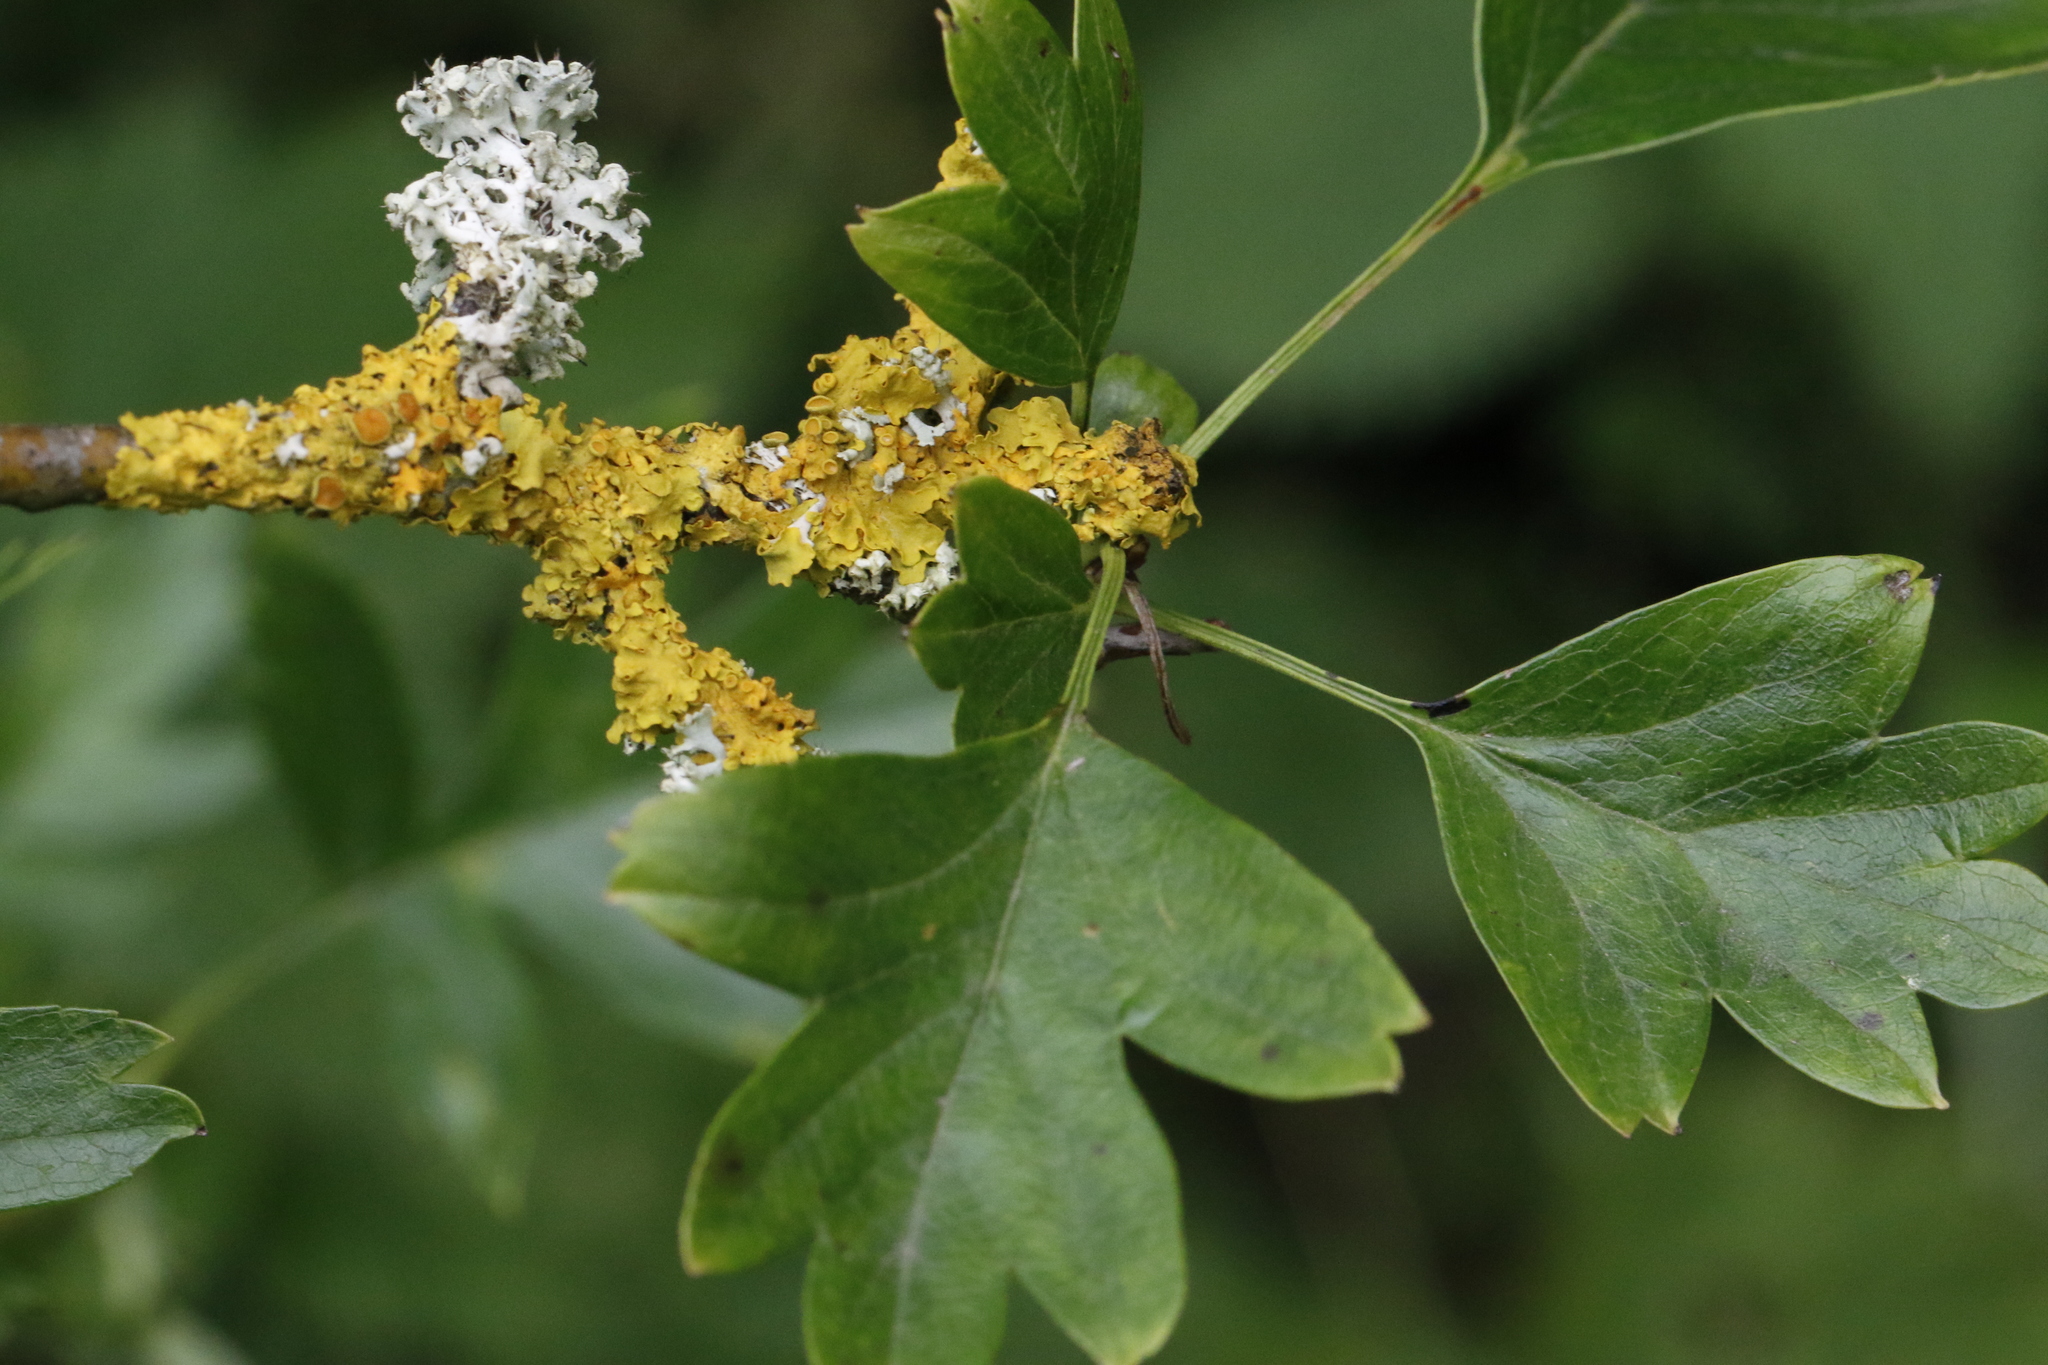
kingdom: Fungi
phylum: Ascomycota
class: Lecanoromycetes
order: Teloschistales
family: Teloschistaceae
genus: Xanthoria
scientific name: Xanthoria parietina
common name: Common orange lichen
